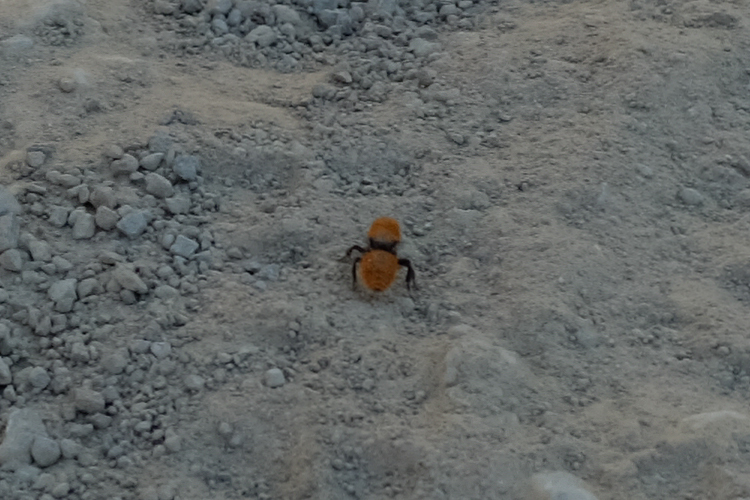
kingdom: Animalia
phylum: Arthropoda
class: Insecta
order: Hymenoptera
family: Mutillidae
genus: Dasymutilla
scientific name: Dasymutilla
